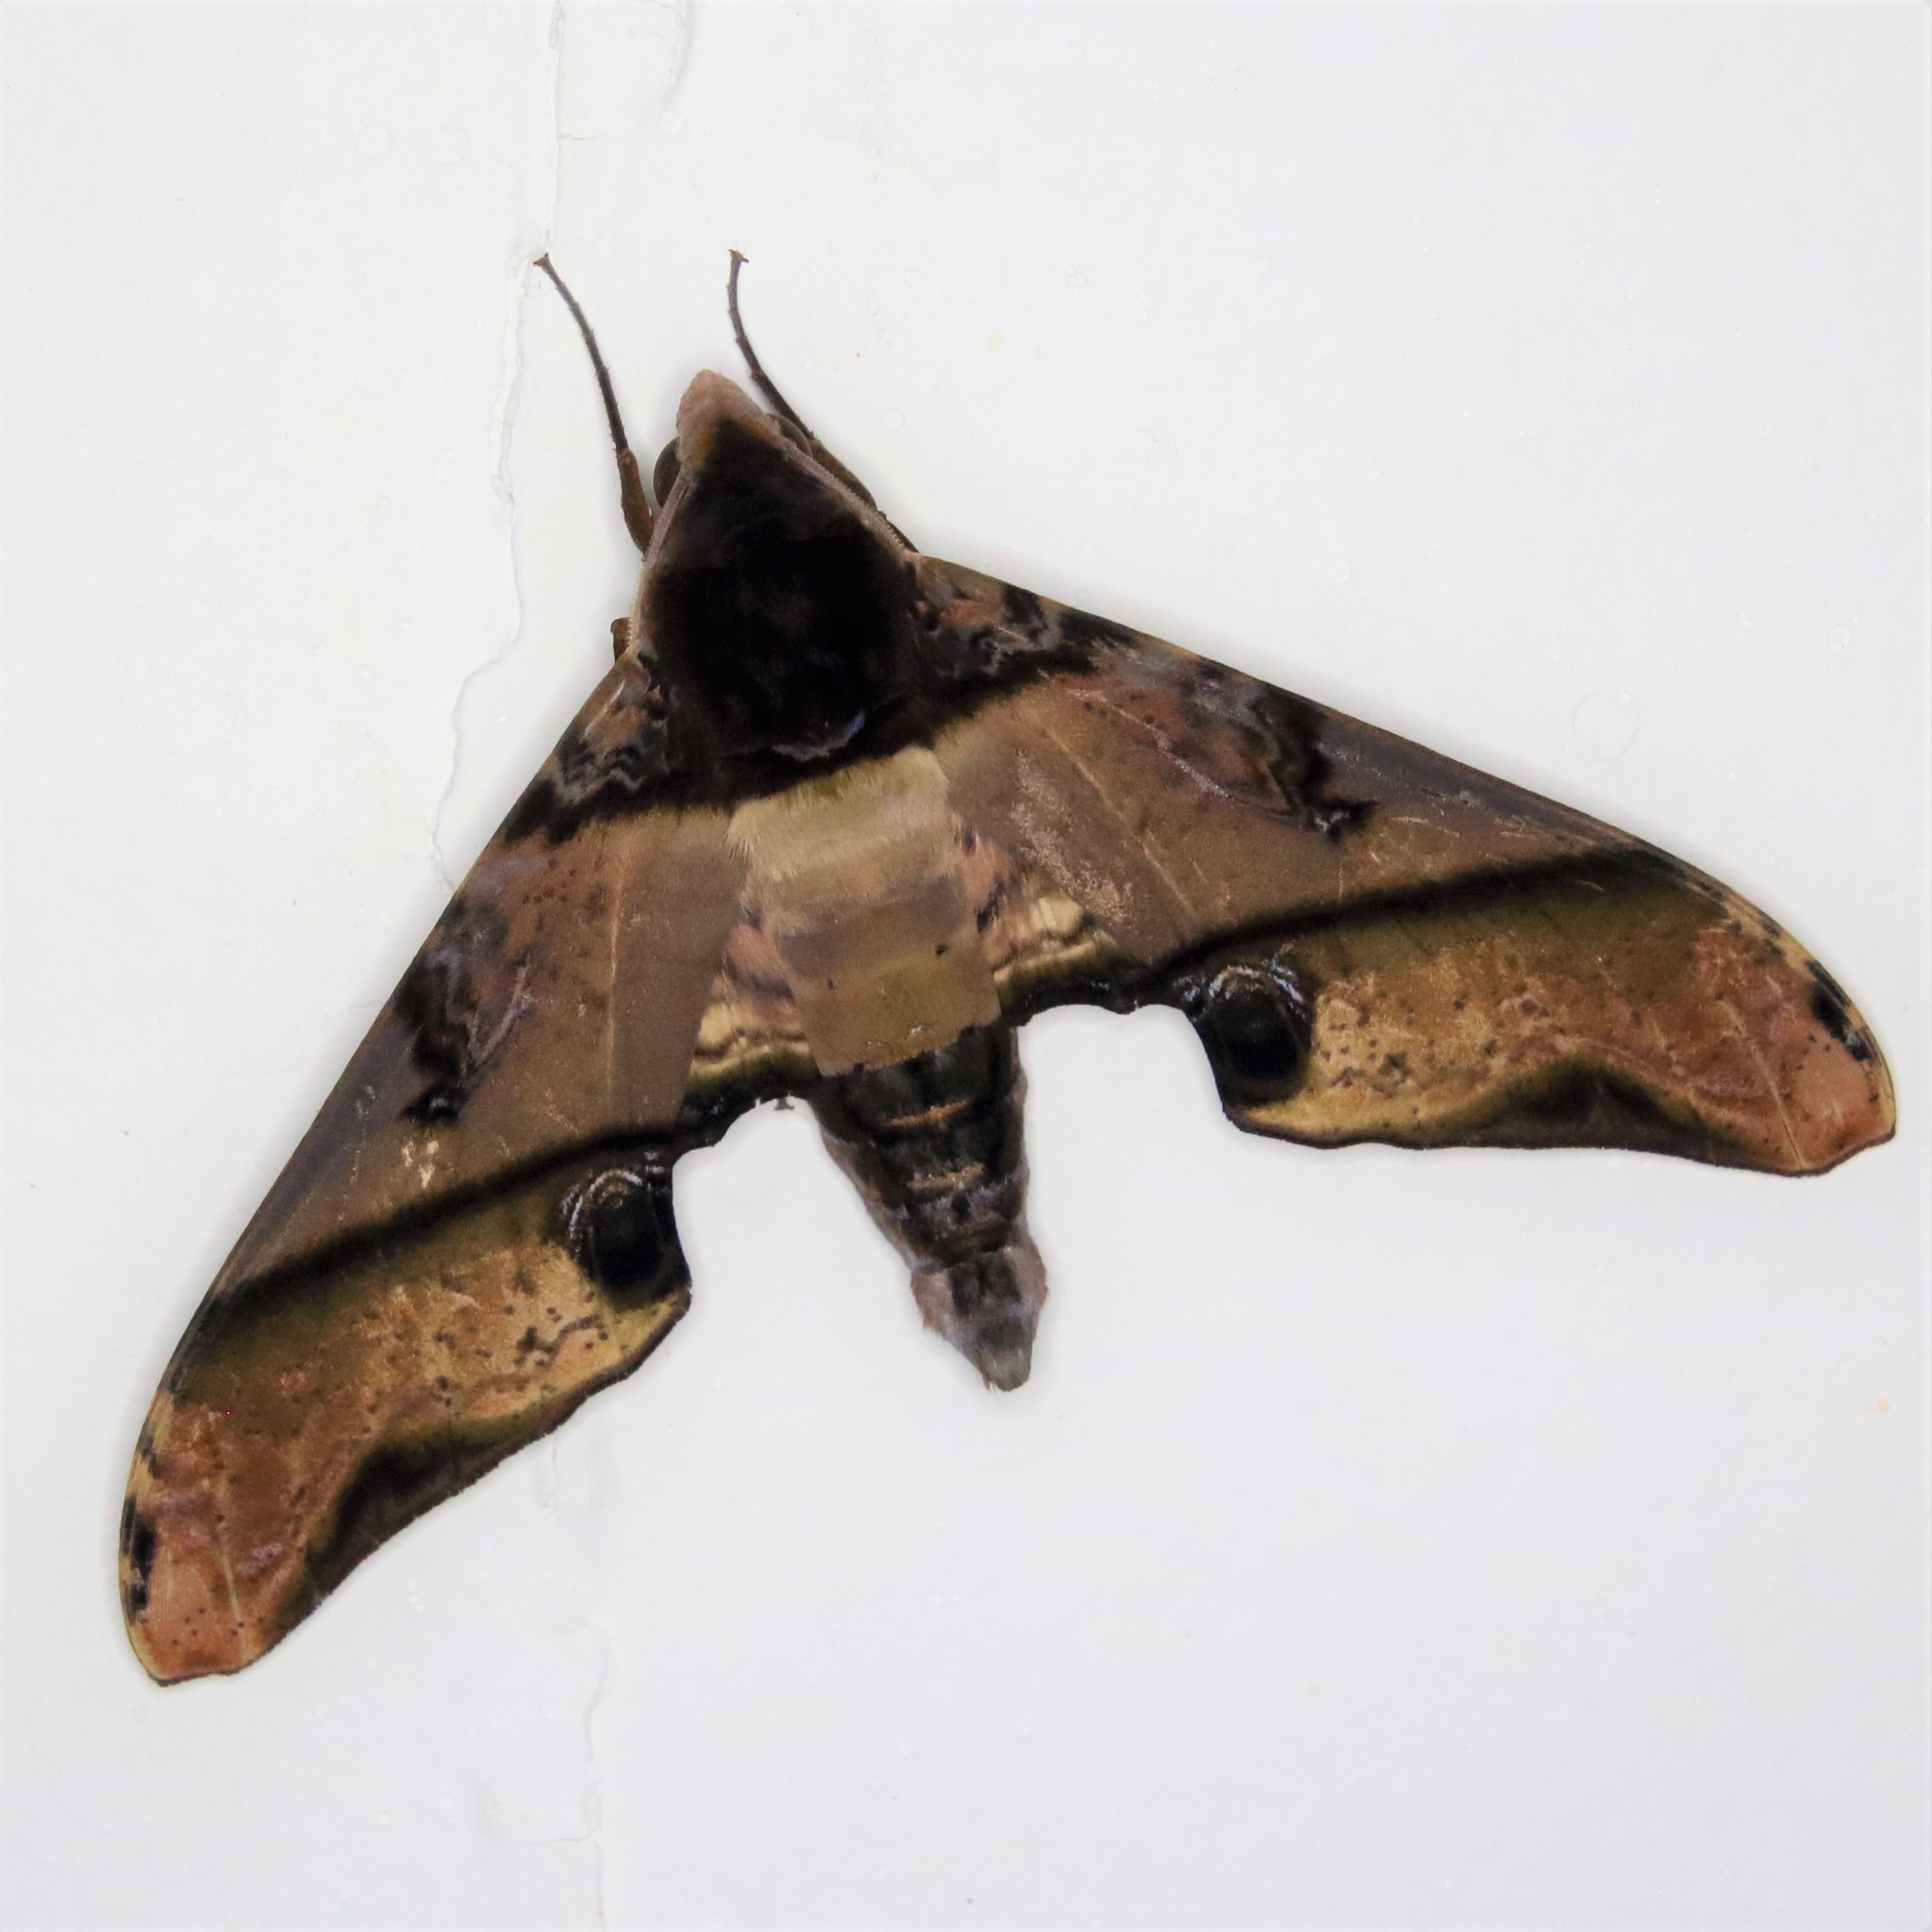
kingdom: Animalia
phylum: Arthropoda
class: Insecta
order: Lepidoptera
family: Sphingidae
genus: Amplypterus
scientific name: Amplypterus panopus
